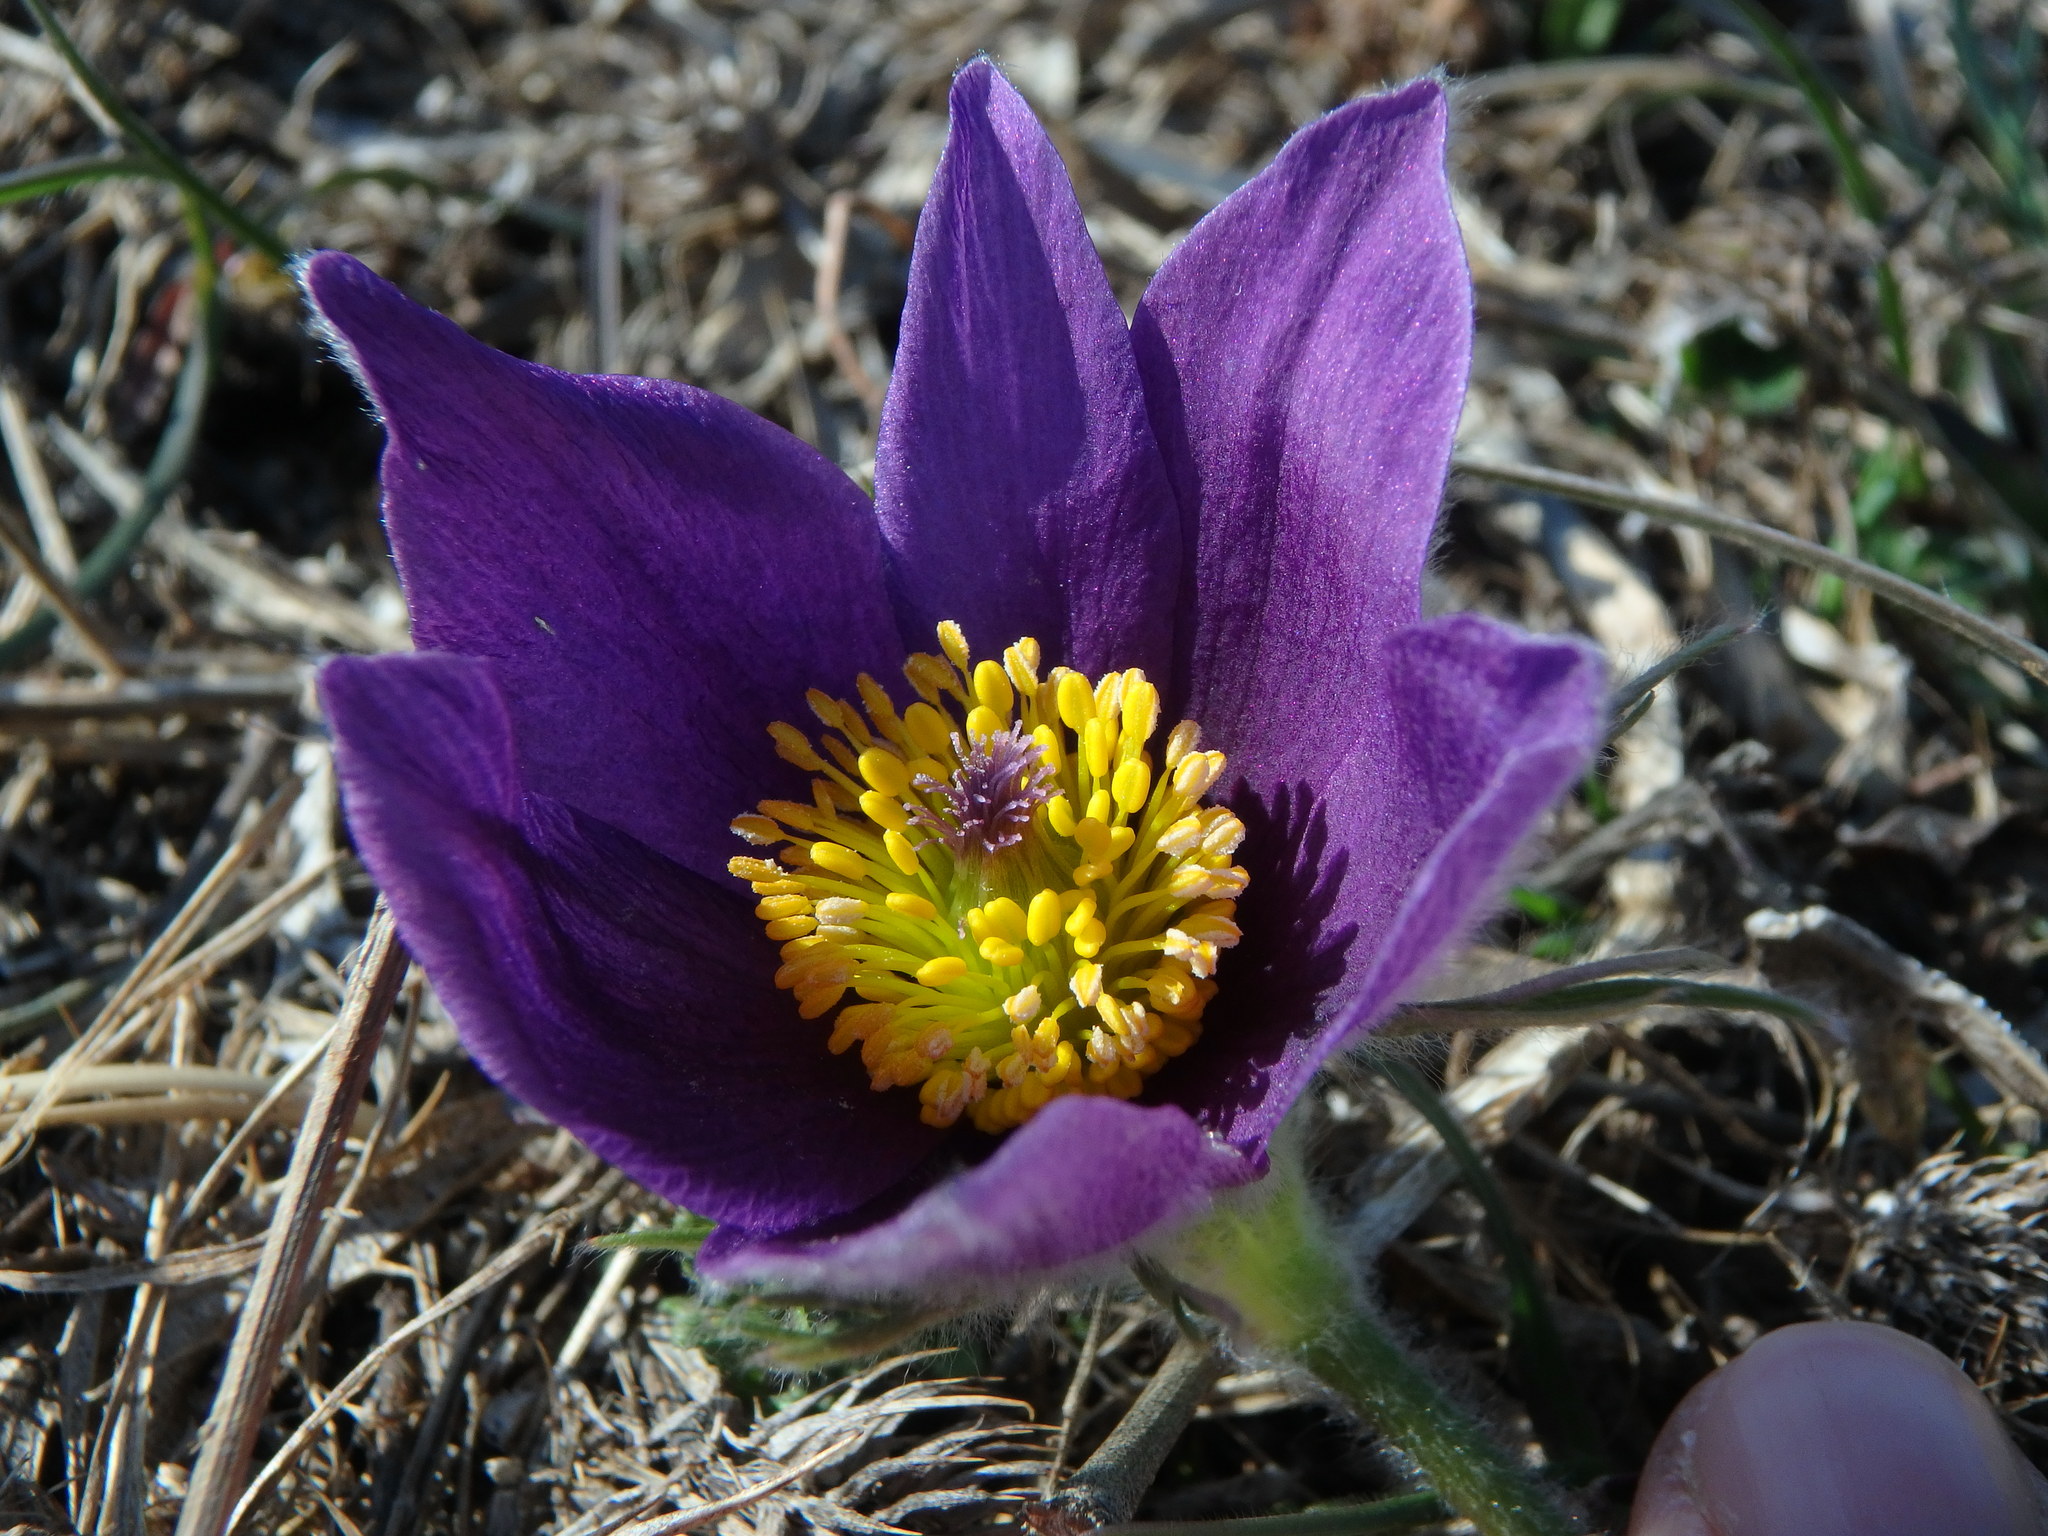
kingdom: Plantae
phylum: Tracheophyta
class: Magnoliopsida
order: Ranunculales
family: Ranunculaceae
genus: Pulsatilla
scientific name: Pulsatilla vulgaris
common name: Pasqueflower
